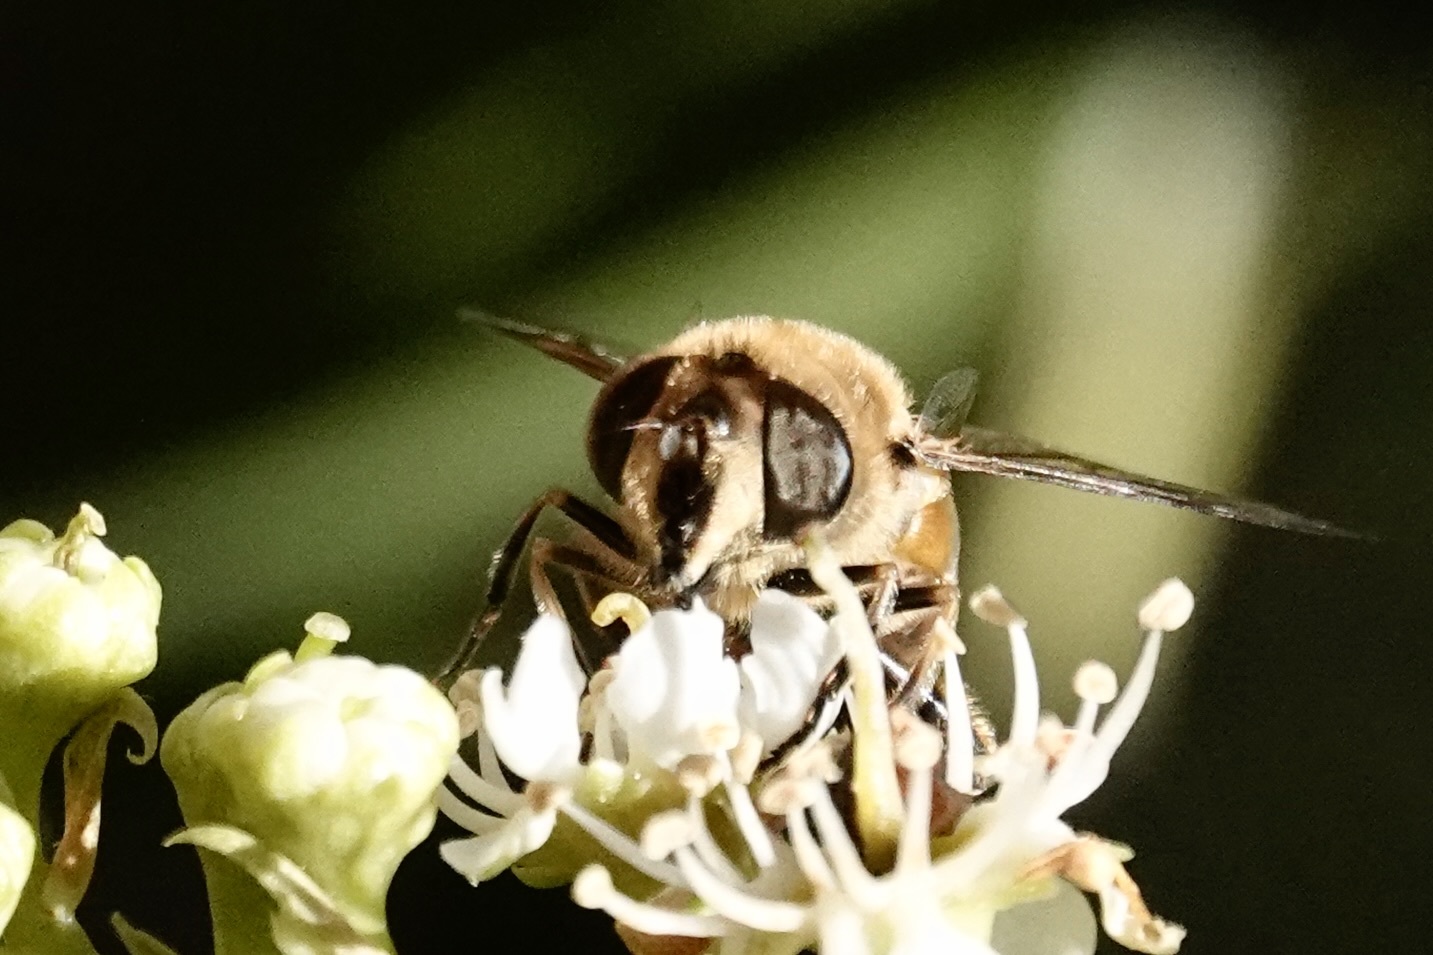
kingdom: Animalia
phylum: Arthropoda
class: Insecta
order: Diptera
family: Syrphidae
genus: Eristalis
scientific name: Eristalis tenax
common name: Drone fly
